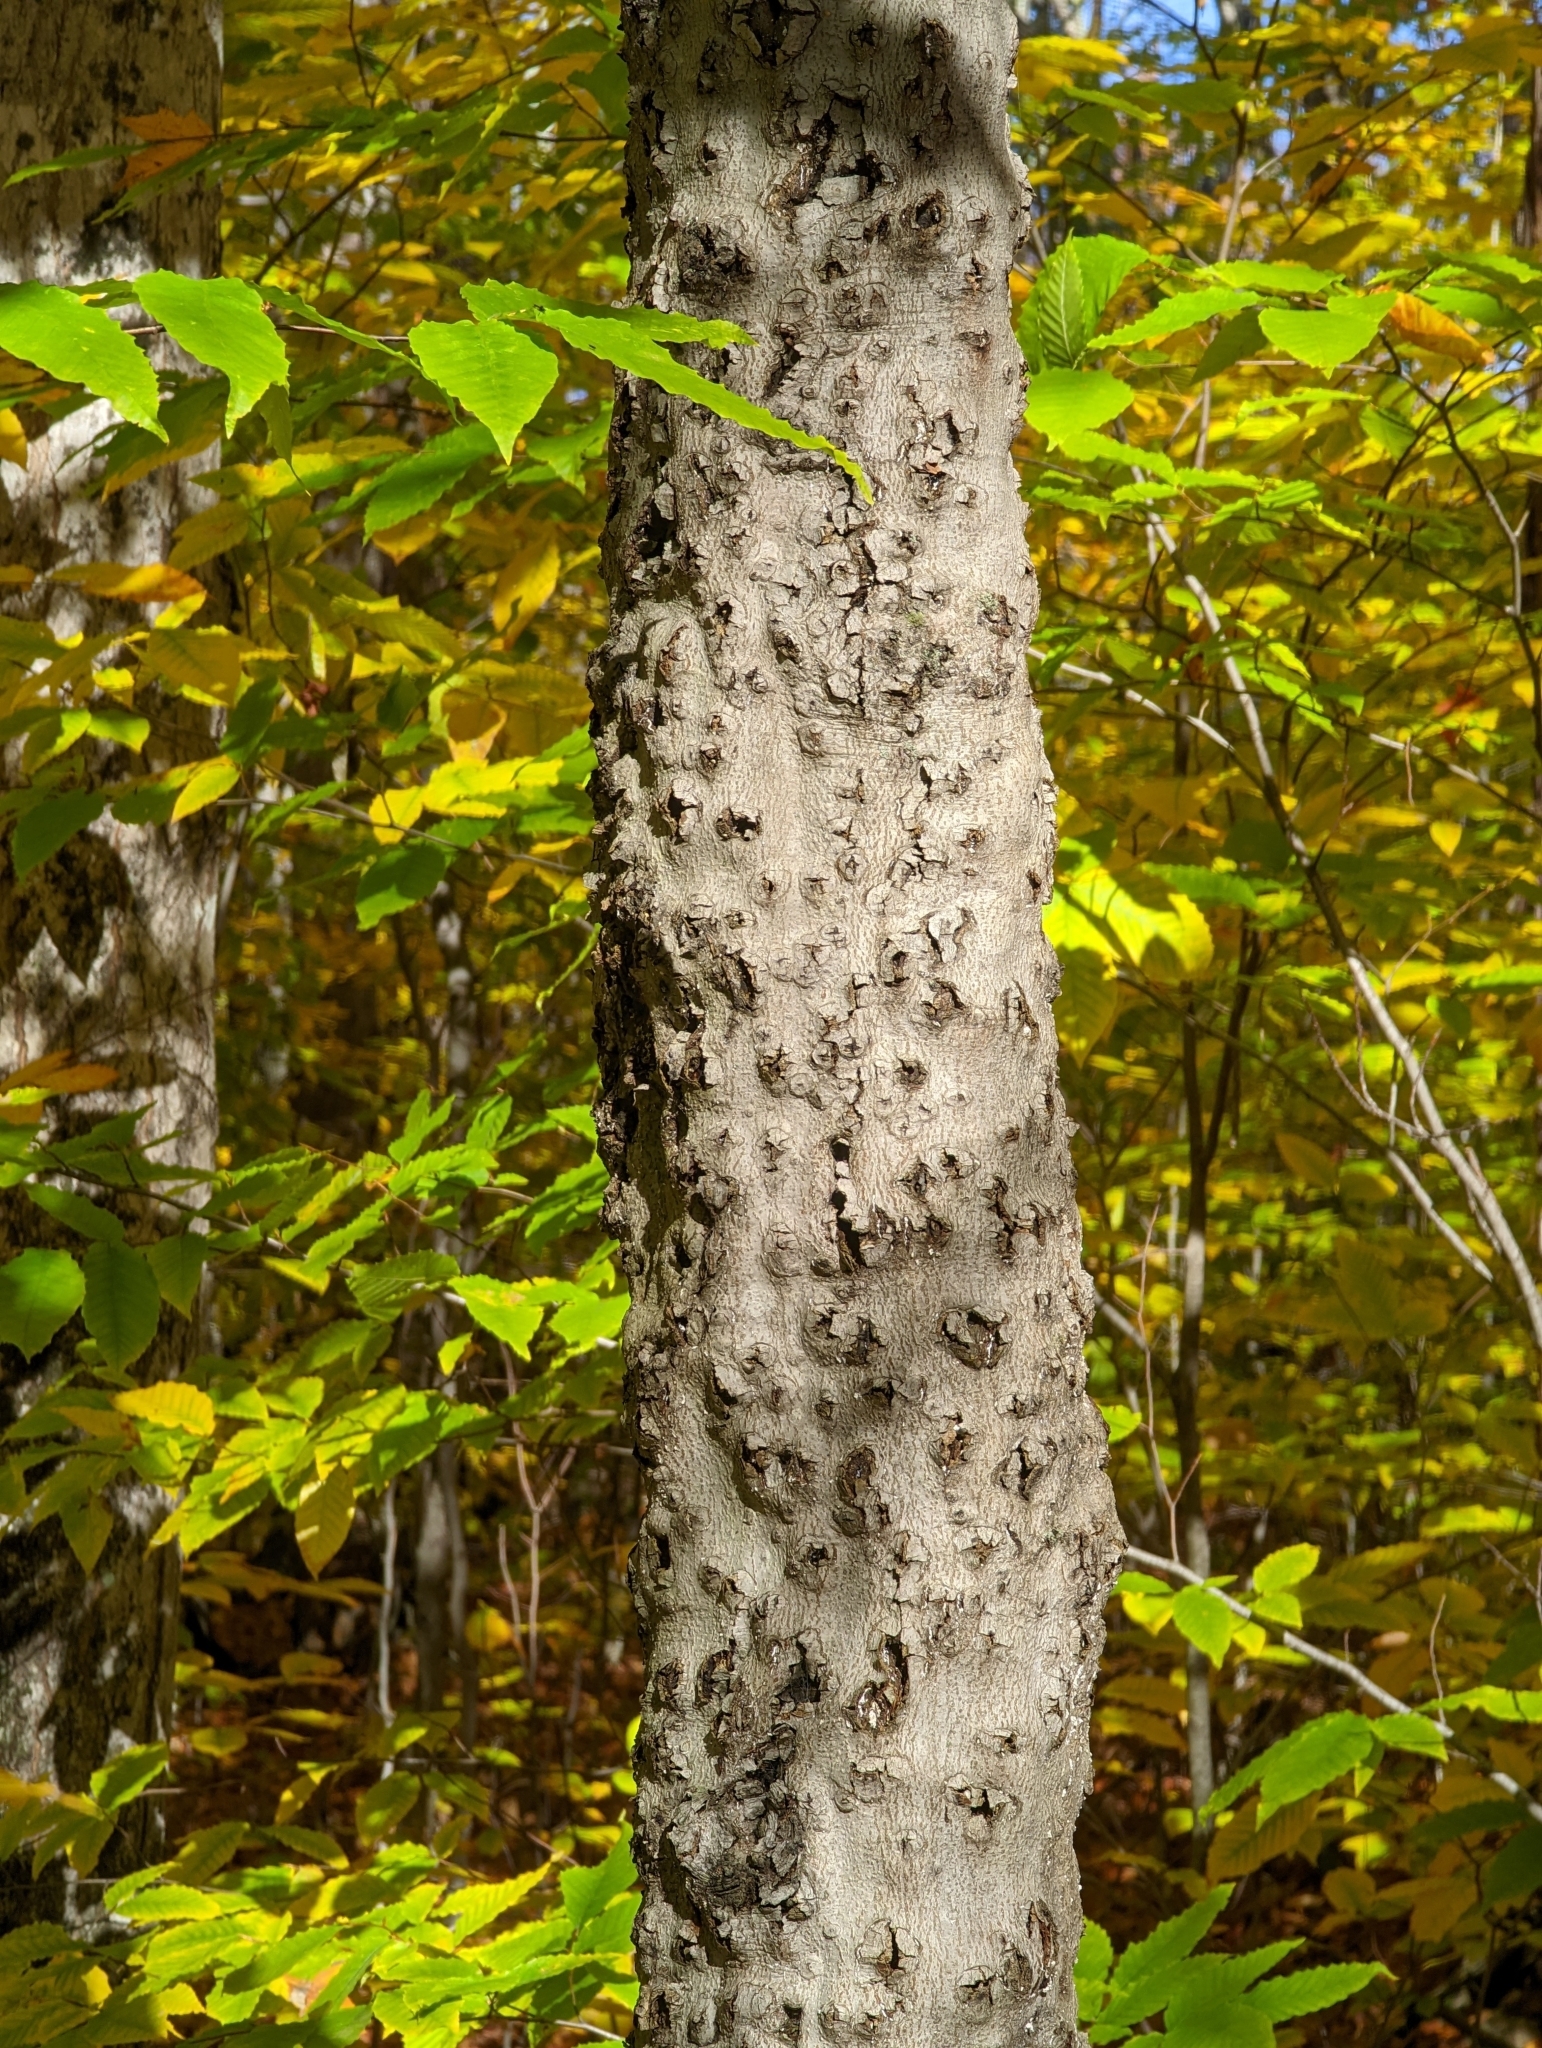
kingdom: Plantae
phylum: Tracheophyta
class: Magnoliopsida
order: Fagales
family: Fagaceae
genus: Fagus
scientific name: Fagus grandifolia
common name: American beech
